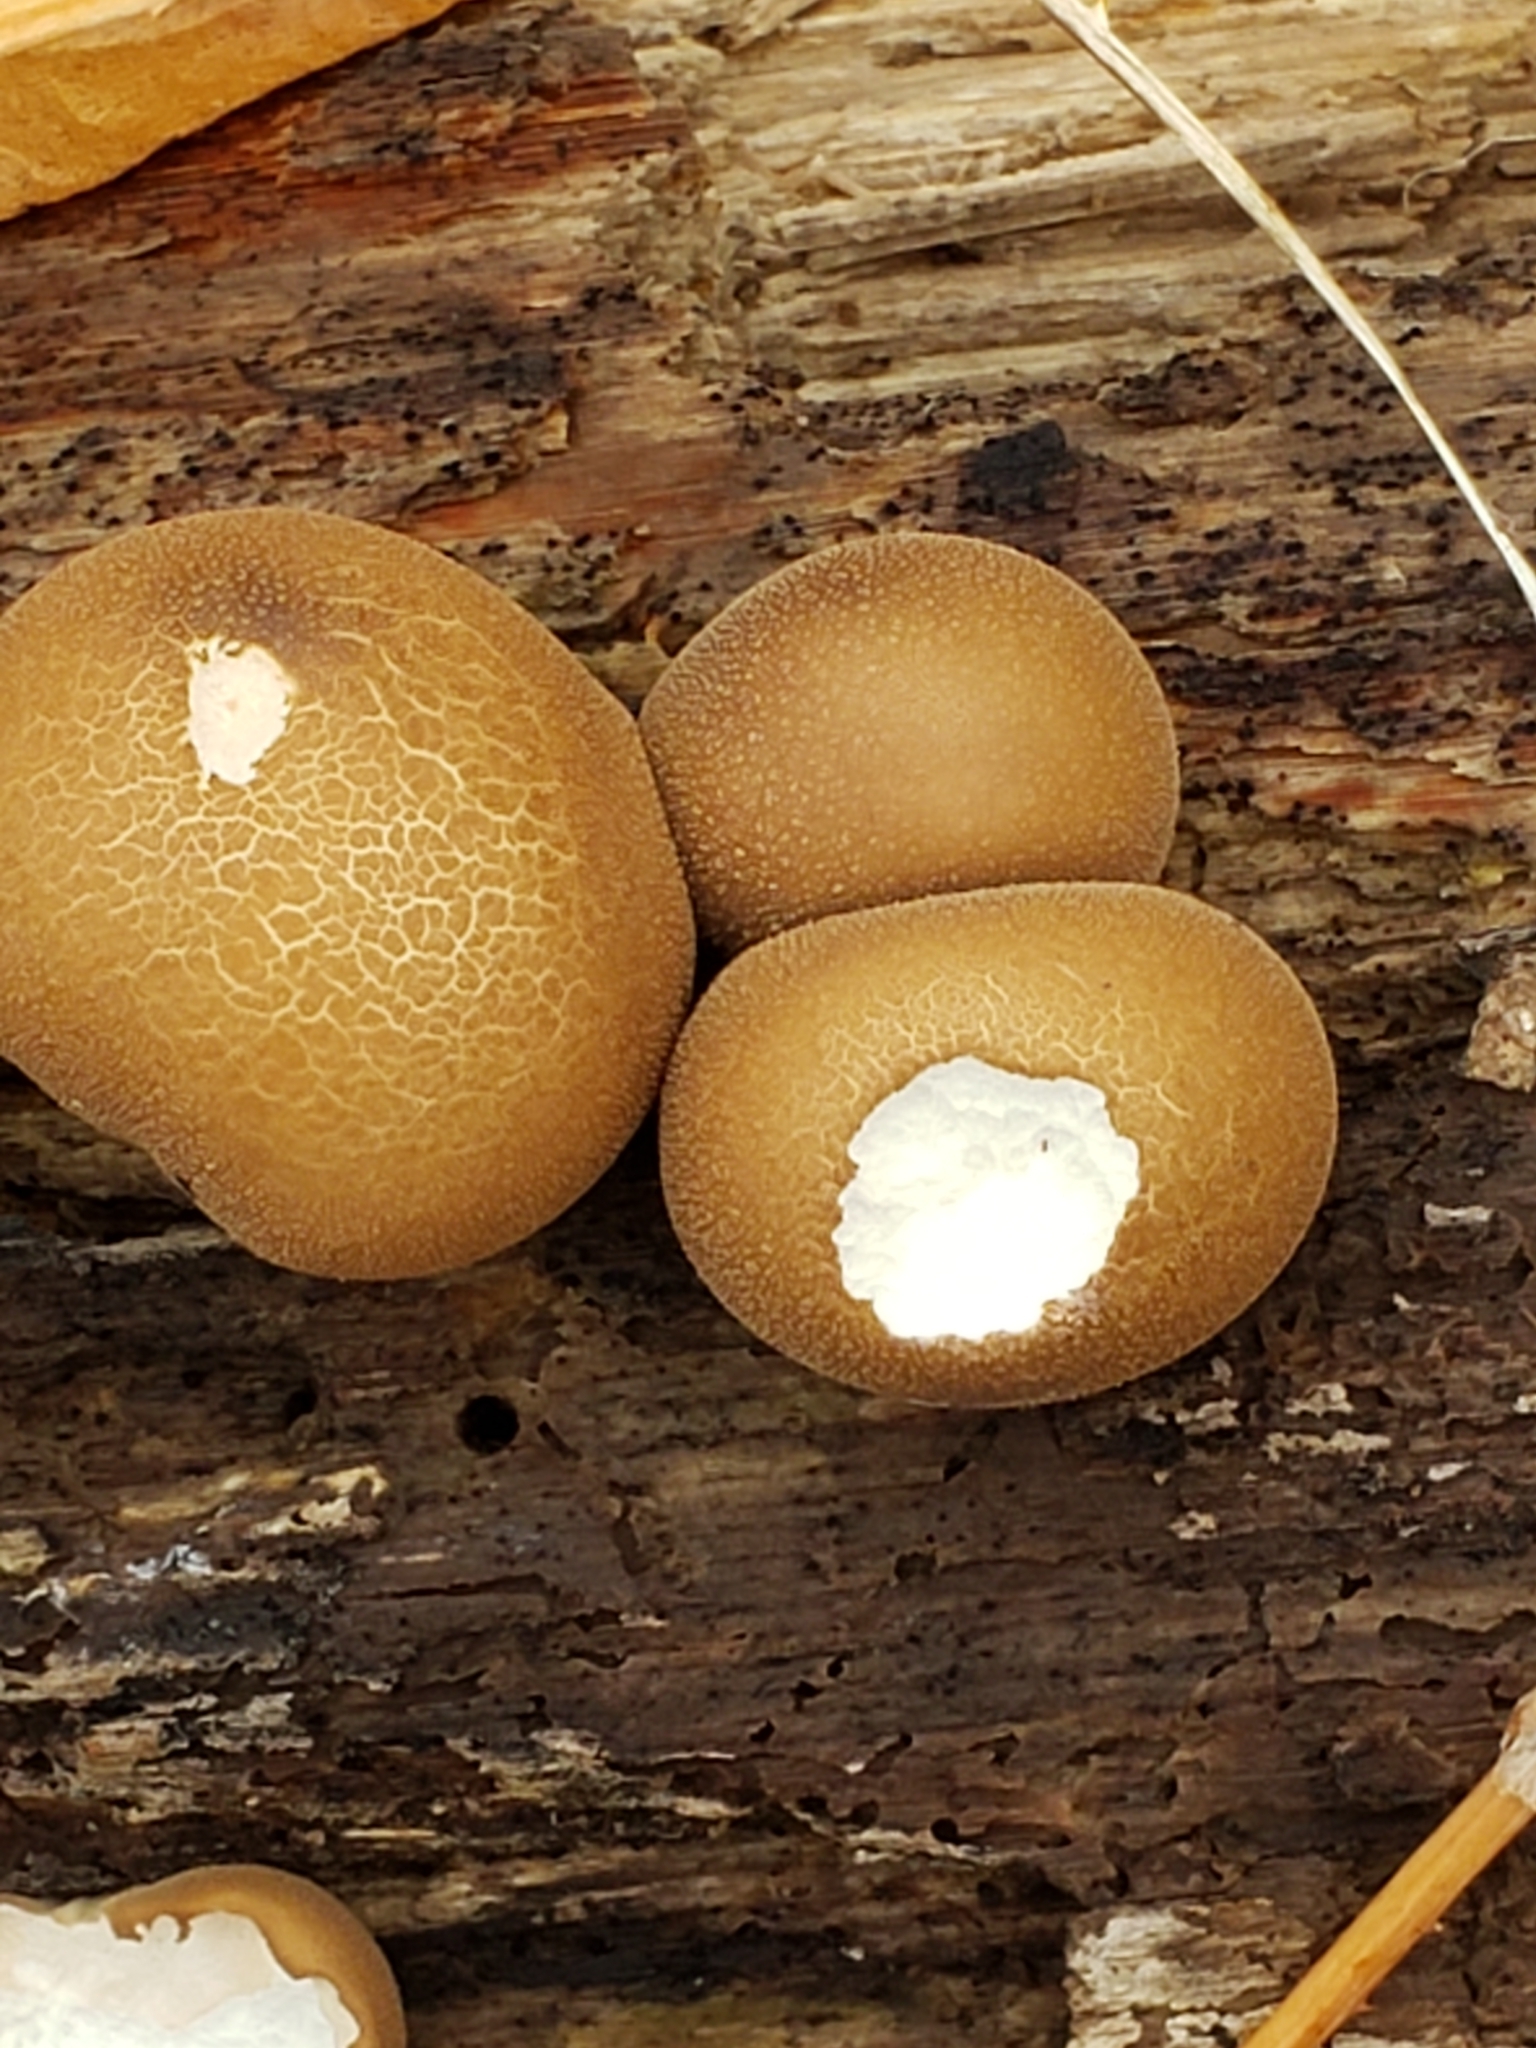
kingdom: Fungi
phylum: Basidiomycota
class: Agaricomycetes
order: Agaricales
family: Lycoperdaceae
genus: Apioperdon
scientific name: Apioperdon pyriforme
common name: Pear-shaped puffball
